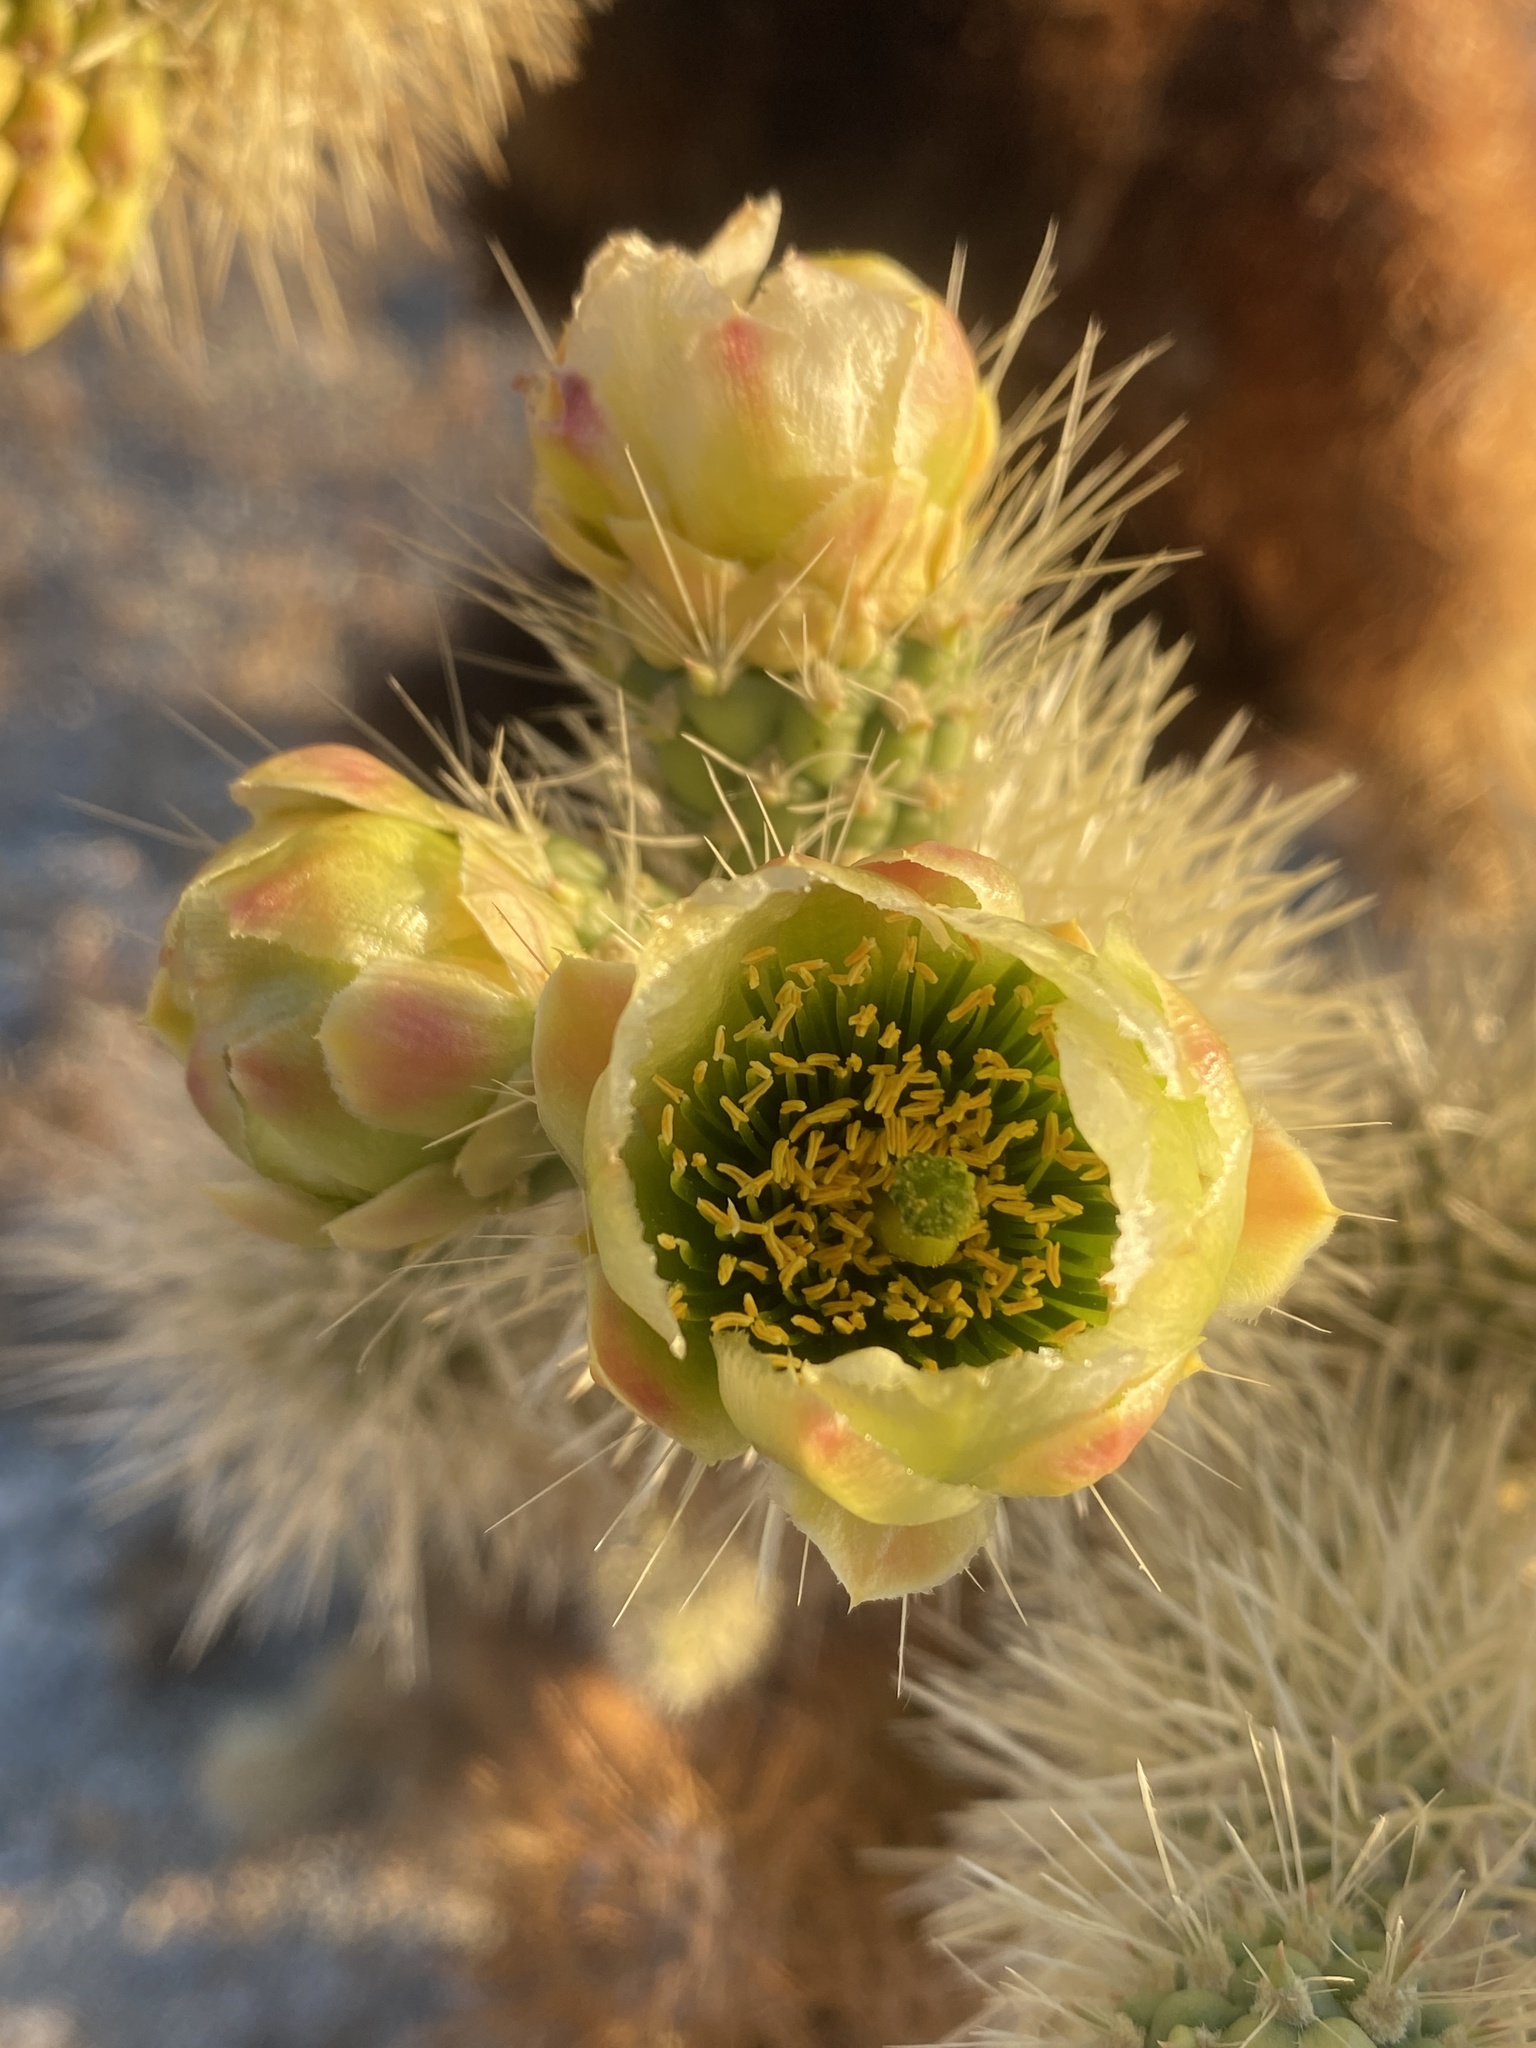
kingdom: Plantae
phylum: Tracheophyta
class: Magnoliopsida
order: Caryophyllales
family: Cactaceae
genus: Cylindropuntia
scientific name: Cylindropuntia fosbergii
